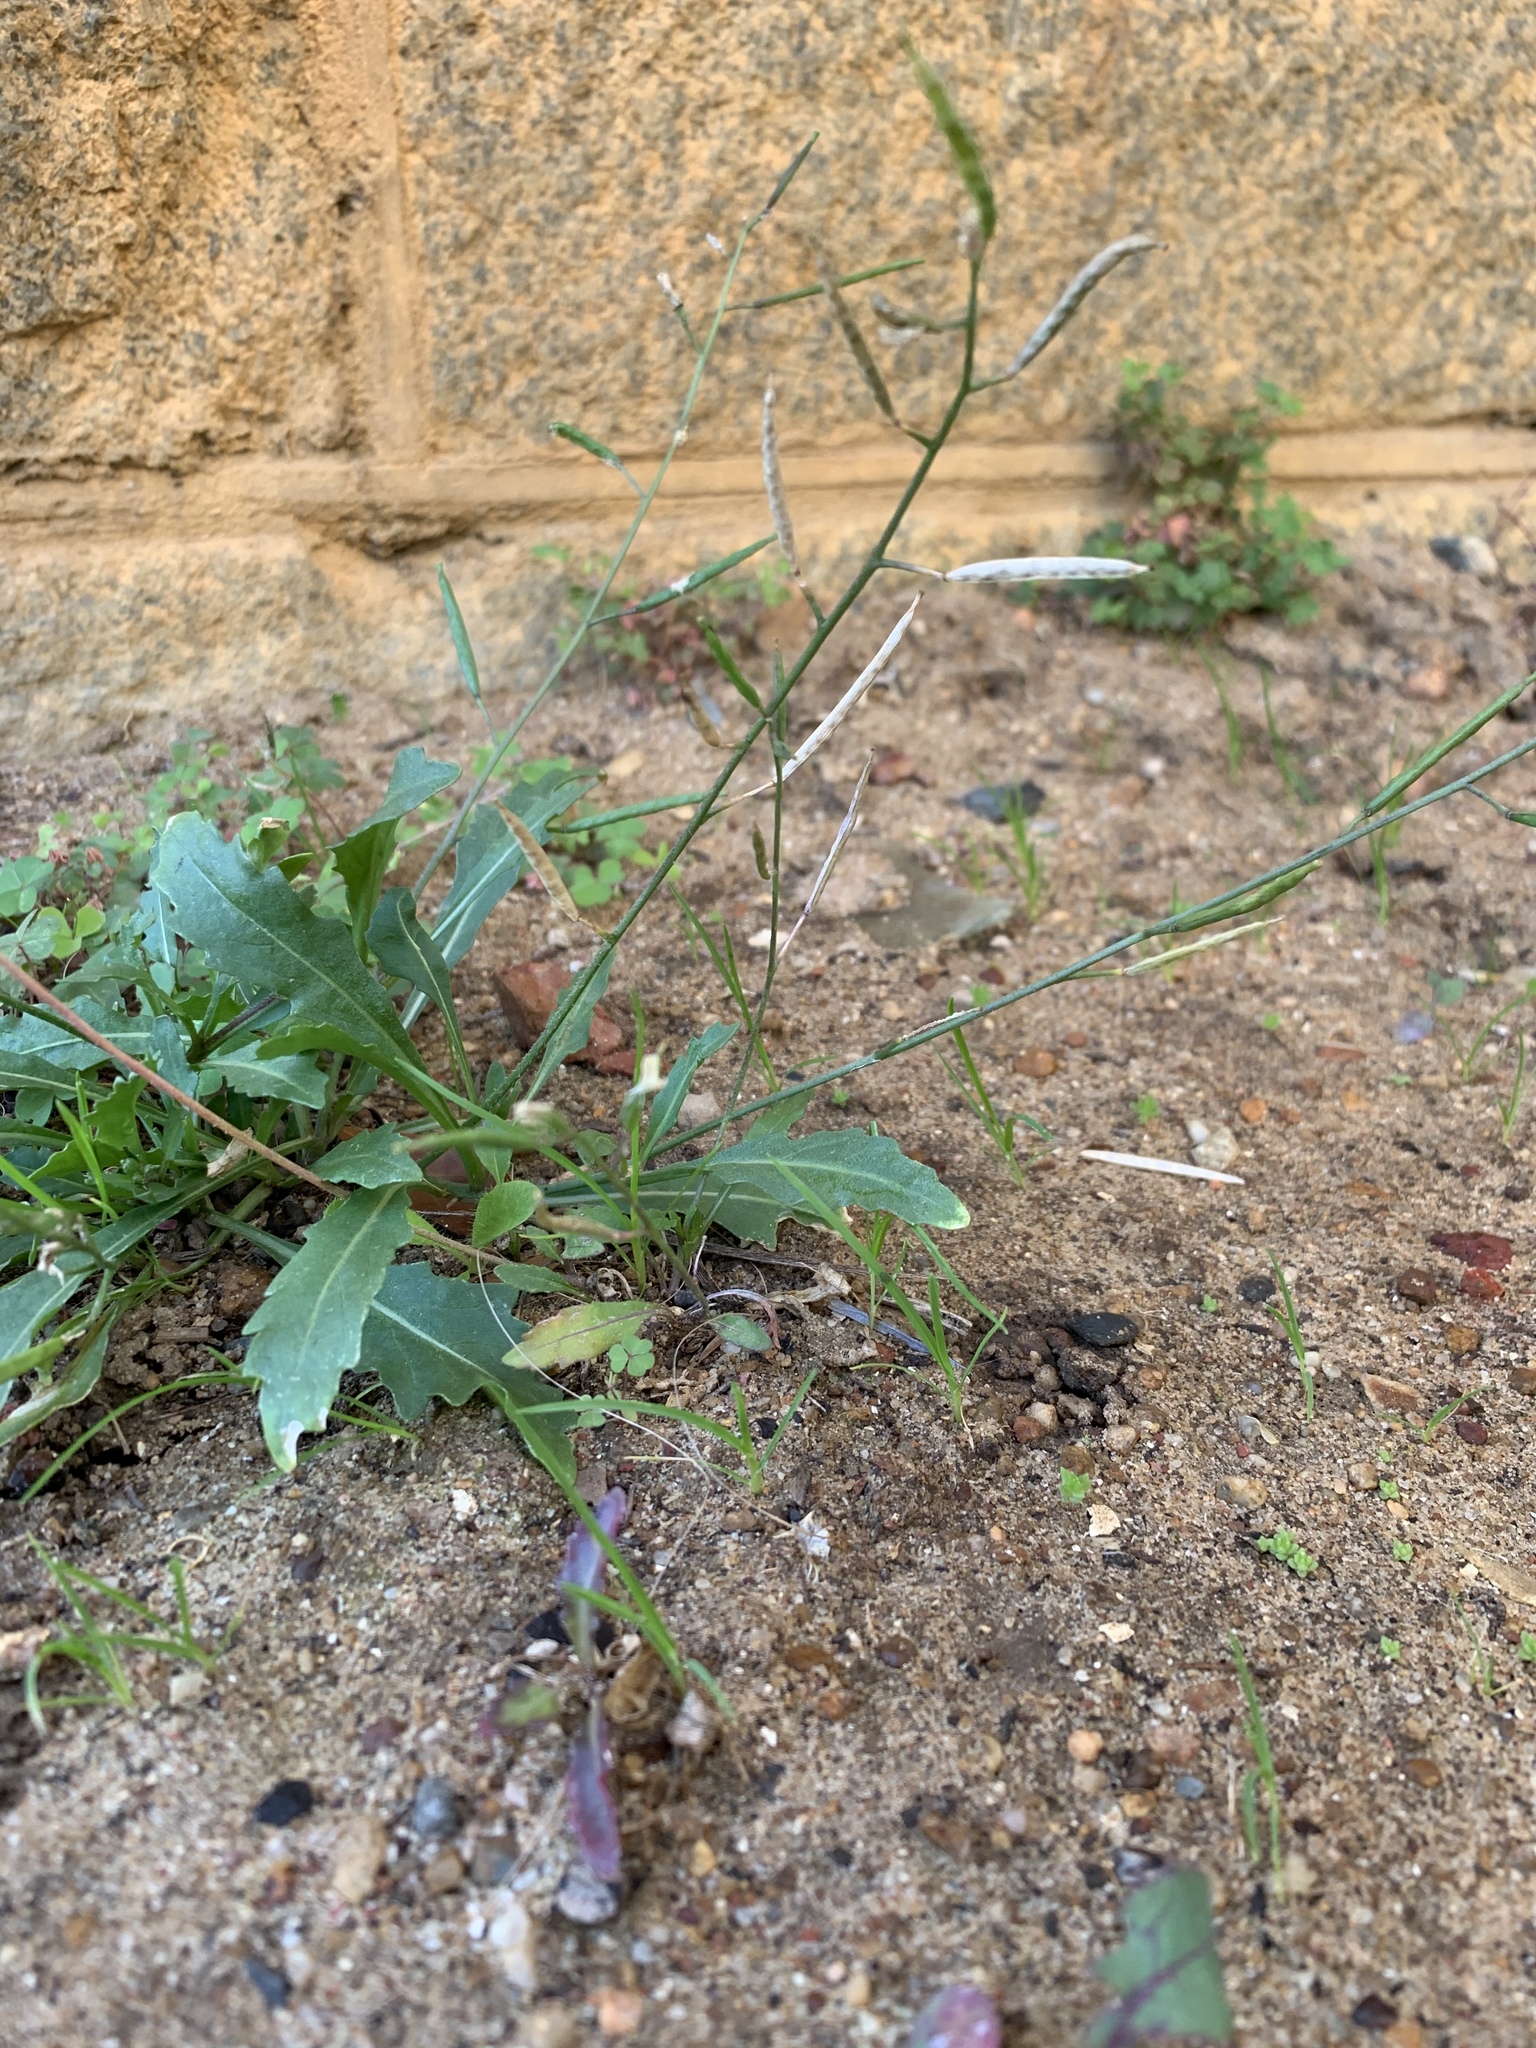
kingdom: Plantae
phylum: Tracheophyta
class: Magnoliopsida
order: Brassicales
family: Brassicaceae
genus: Diplotaxis
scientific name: Diplotaxis muralis
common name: Annual wall-rocket
